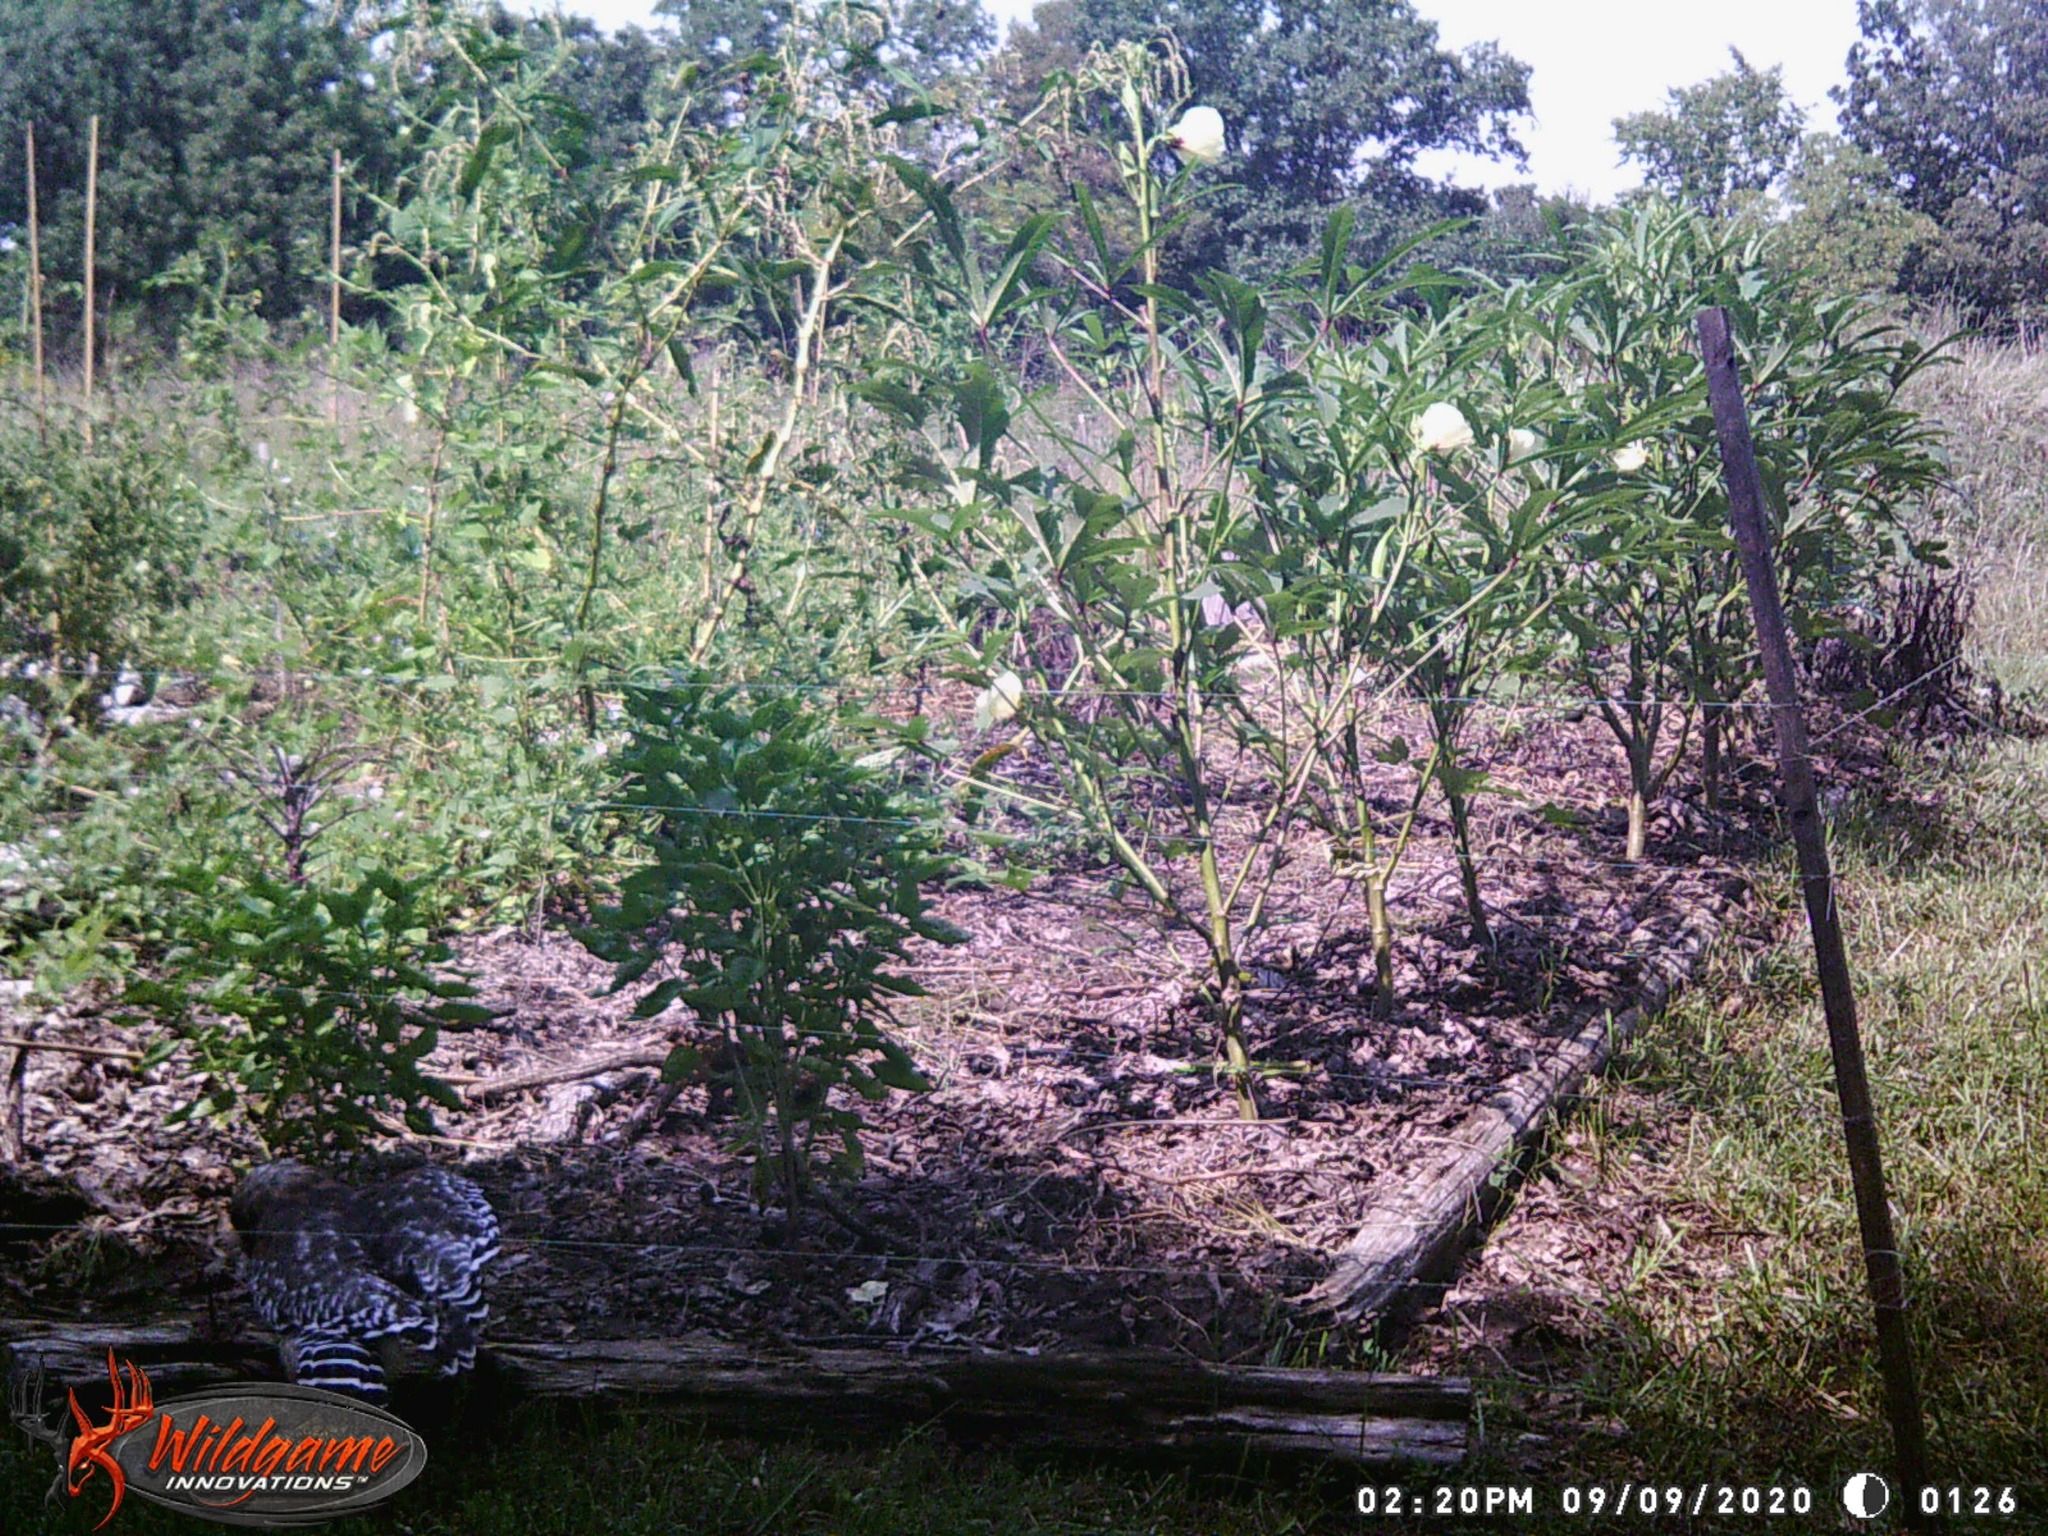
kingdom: Animalia
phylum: Chordata
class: Aves
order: Accipitriformes
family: Accipitridae
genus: Buteo
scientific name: Buteo lineatus
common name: Red-shouldered hawk
